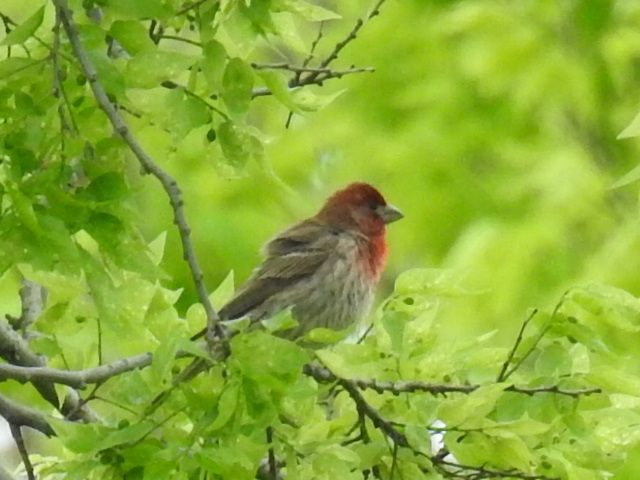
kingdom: Animalia
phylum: Chordata
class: Aves
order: Passeriformes
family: Fringillidae
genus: Haemorhous
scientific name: Haemorhous mexicanus
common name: House finch
